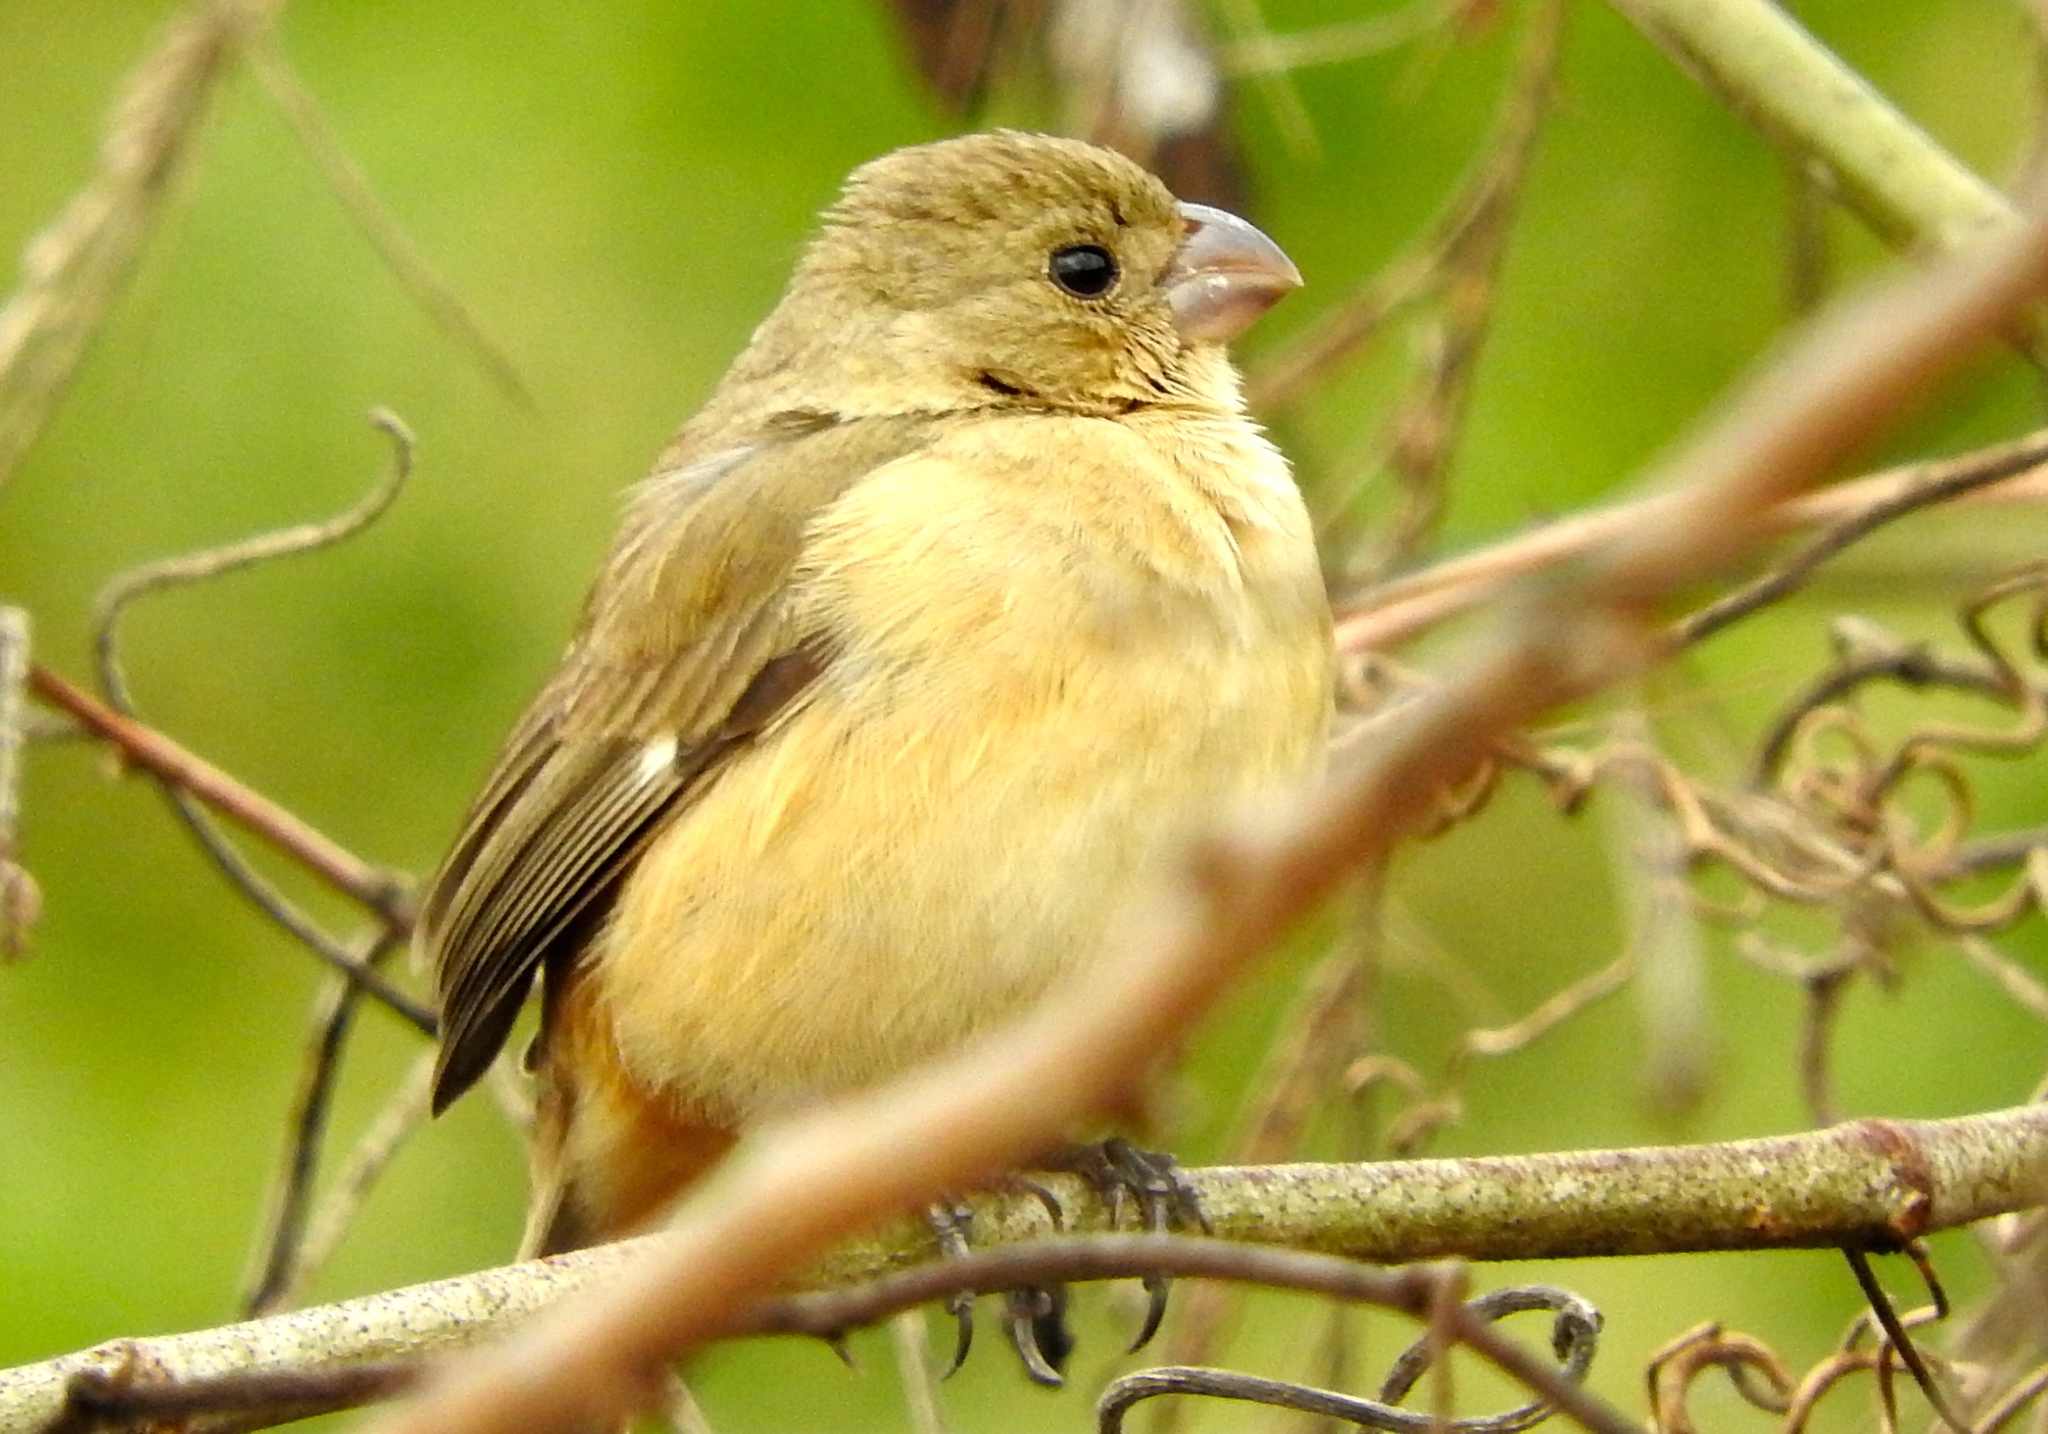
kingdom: Animalia
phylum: Chordata
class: Aves
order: Passeriformes
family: Thraupidae
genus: Sporophila
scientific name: Sporophila torqueola
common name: White-collared seedeater
